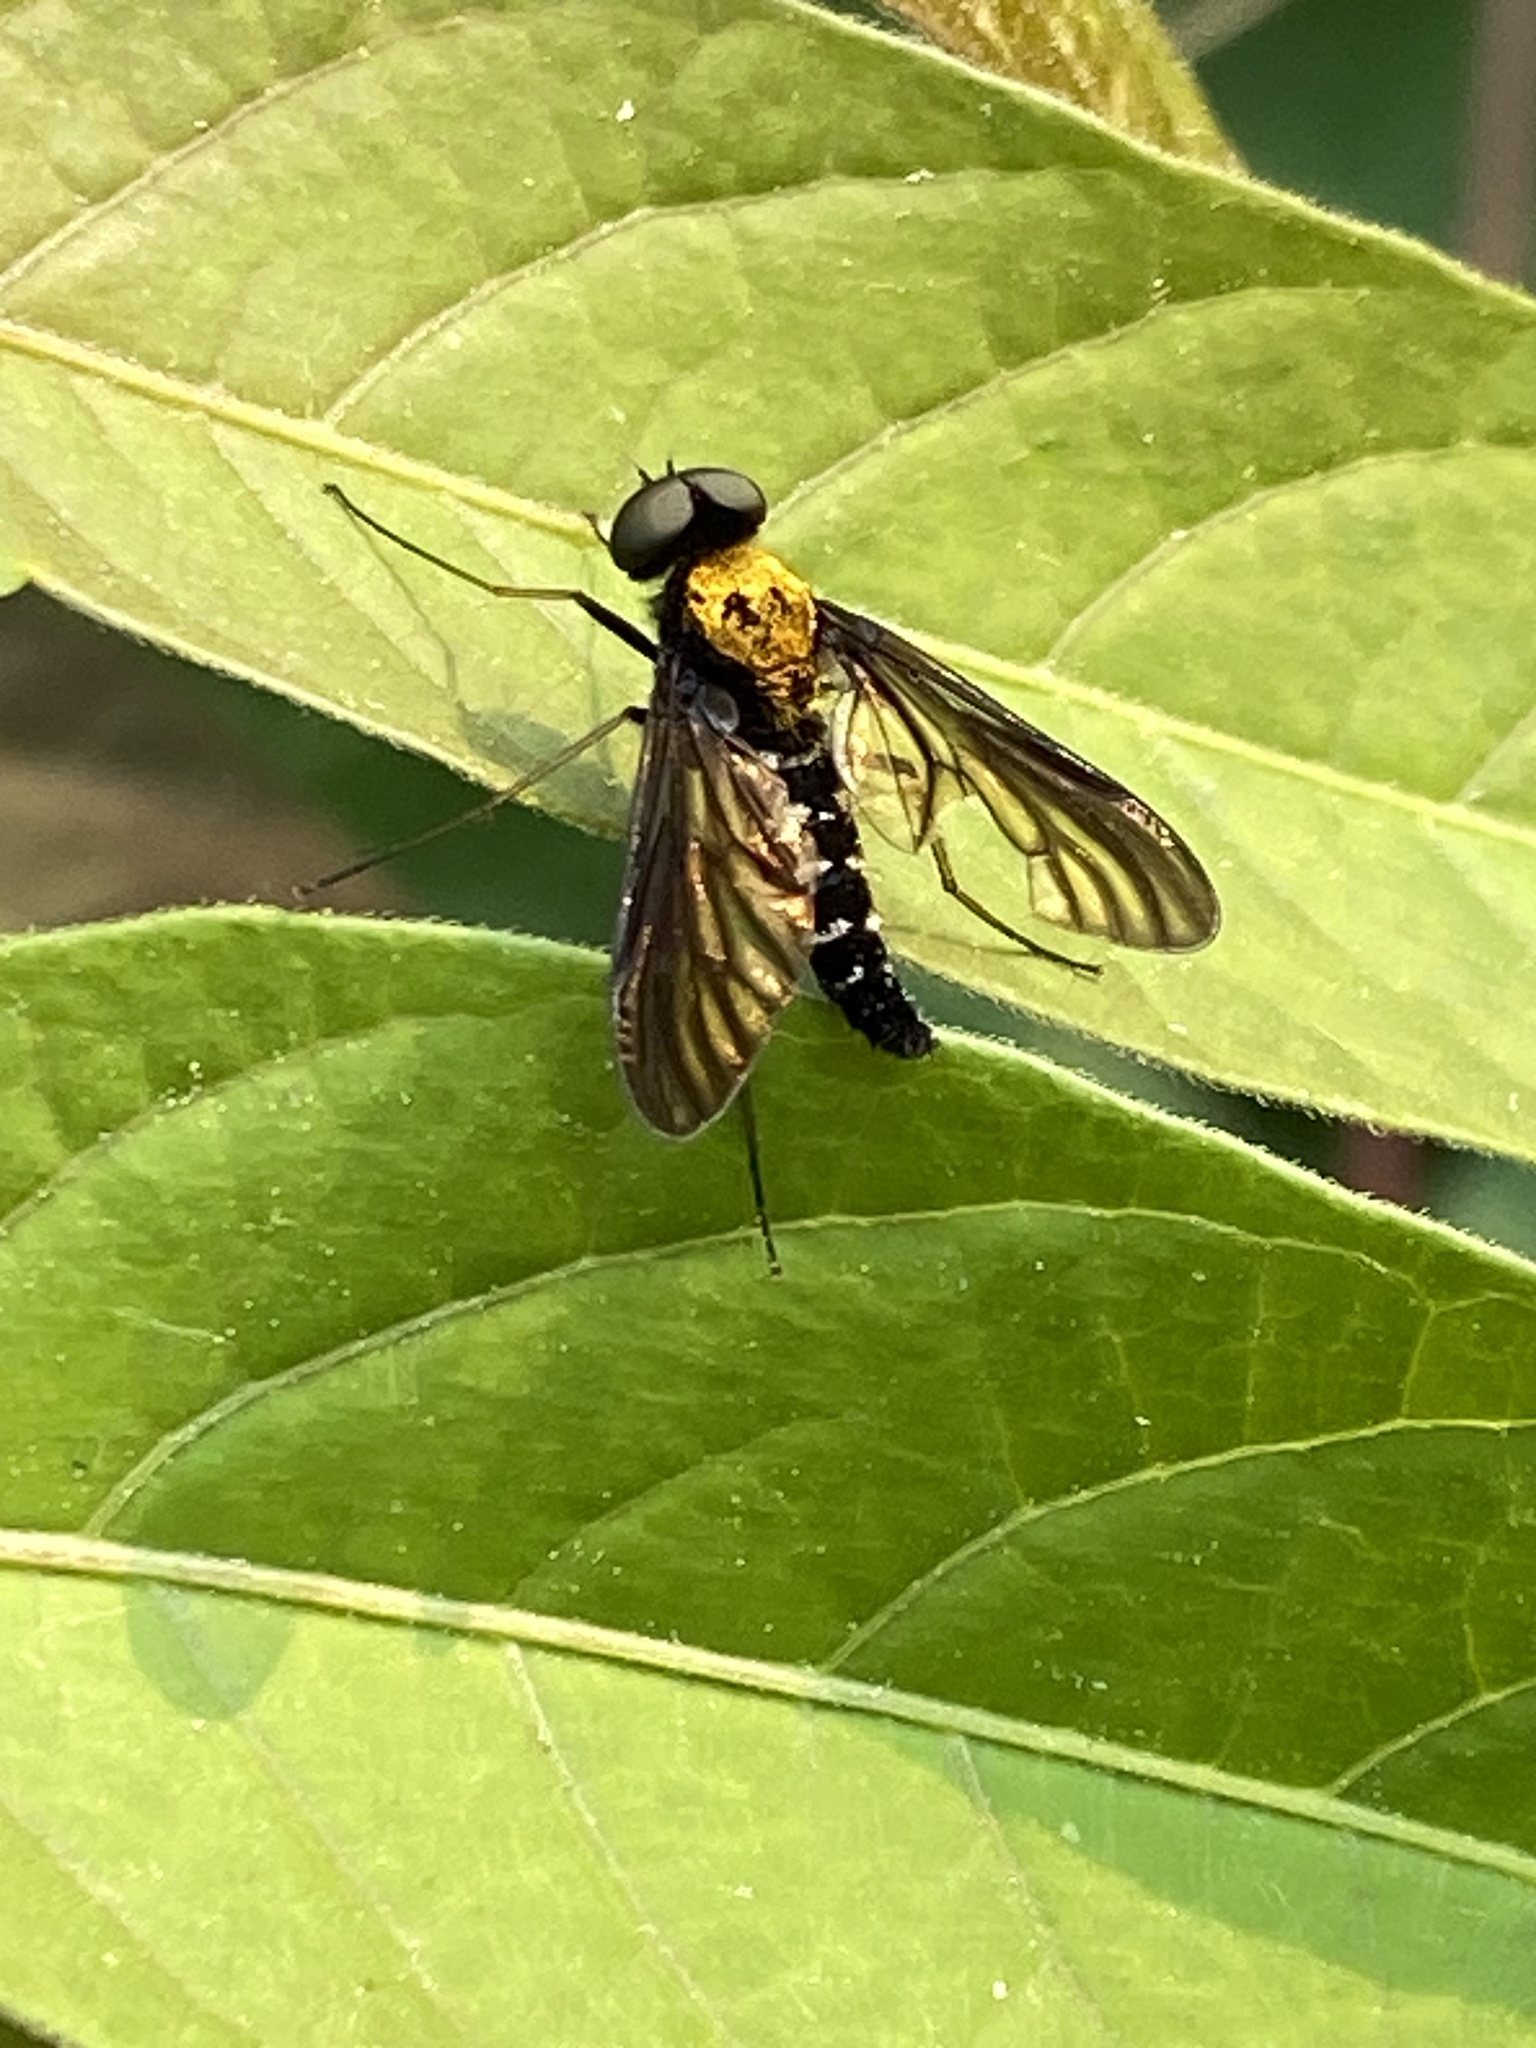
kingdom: Animalia
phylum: Arthropoda
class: Insecta
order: Diptera
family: Rhagionidae
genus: Chrysopilus
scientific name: Chrysopilus thoracicus
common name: Golden-backed snipe fly
